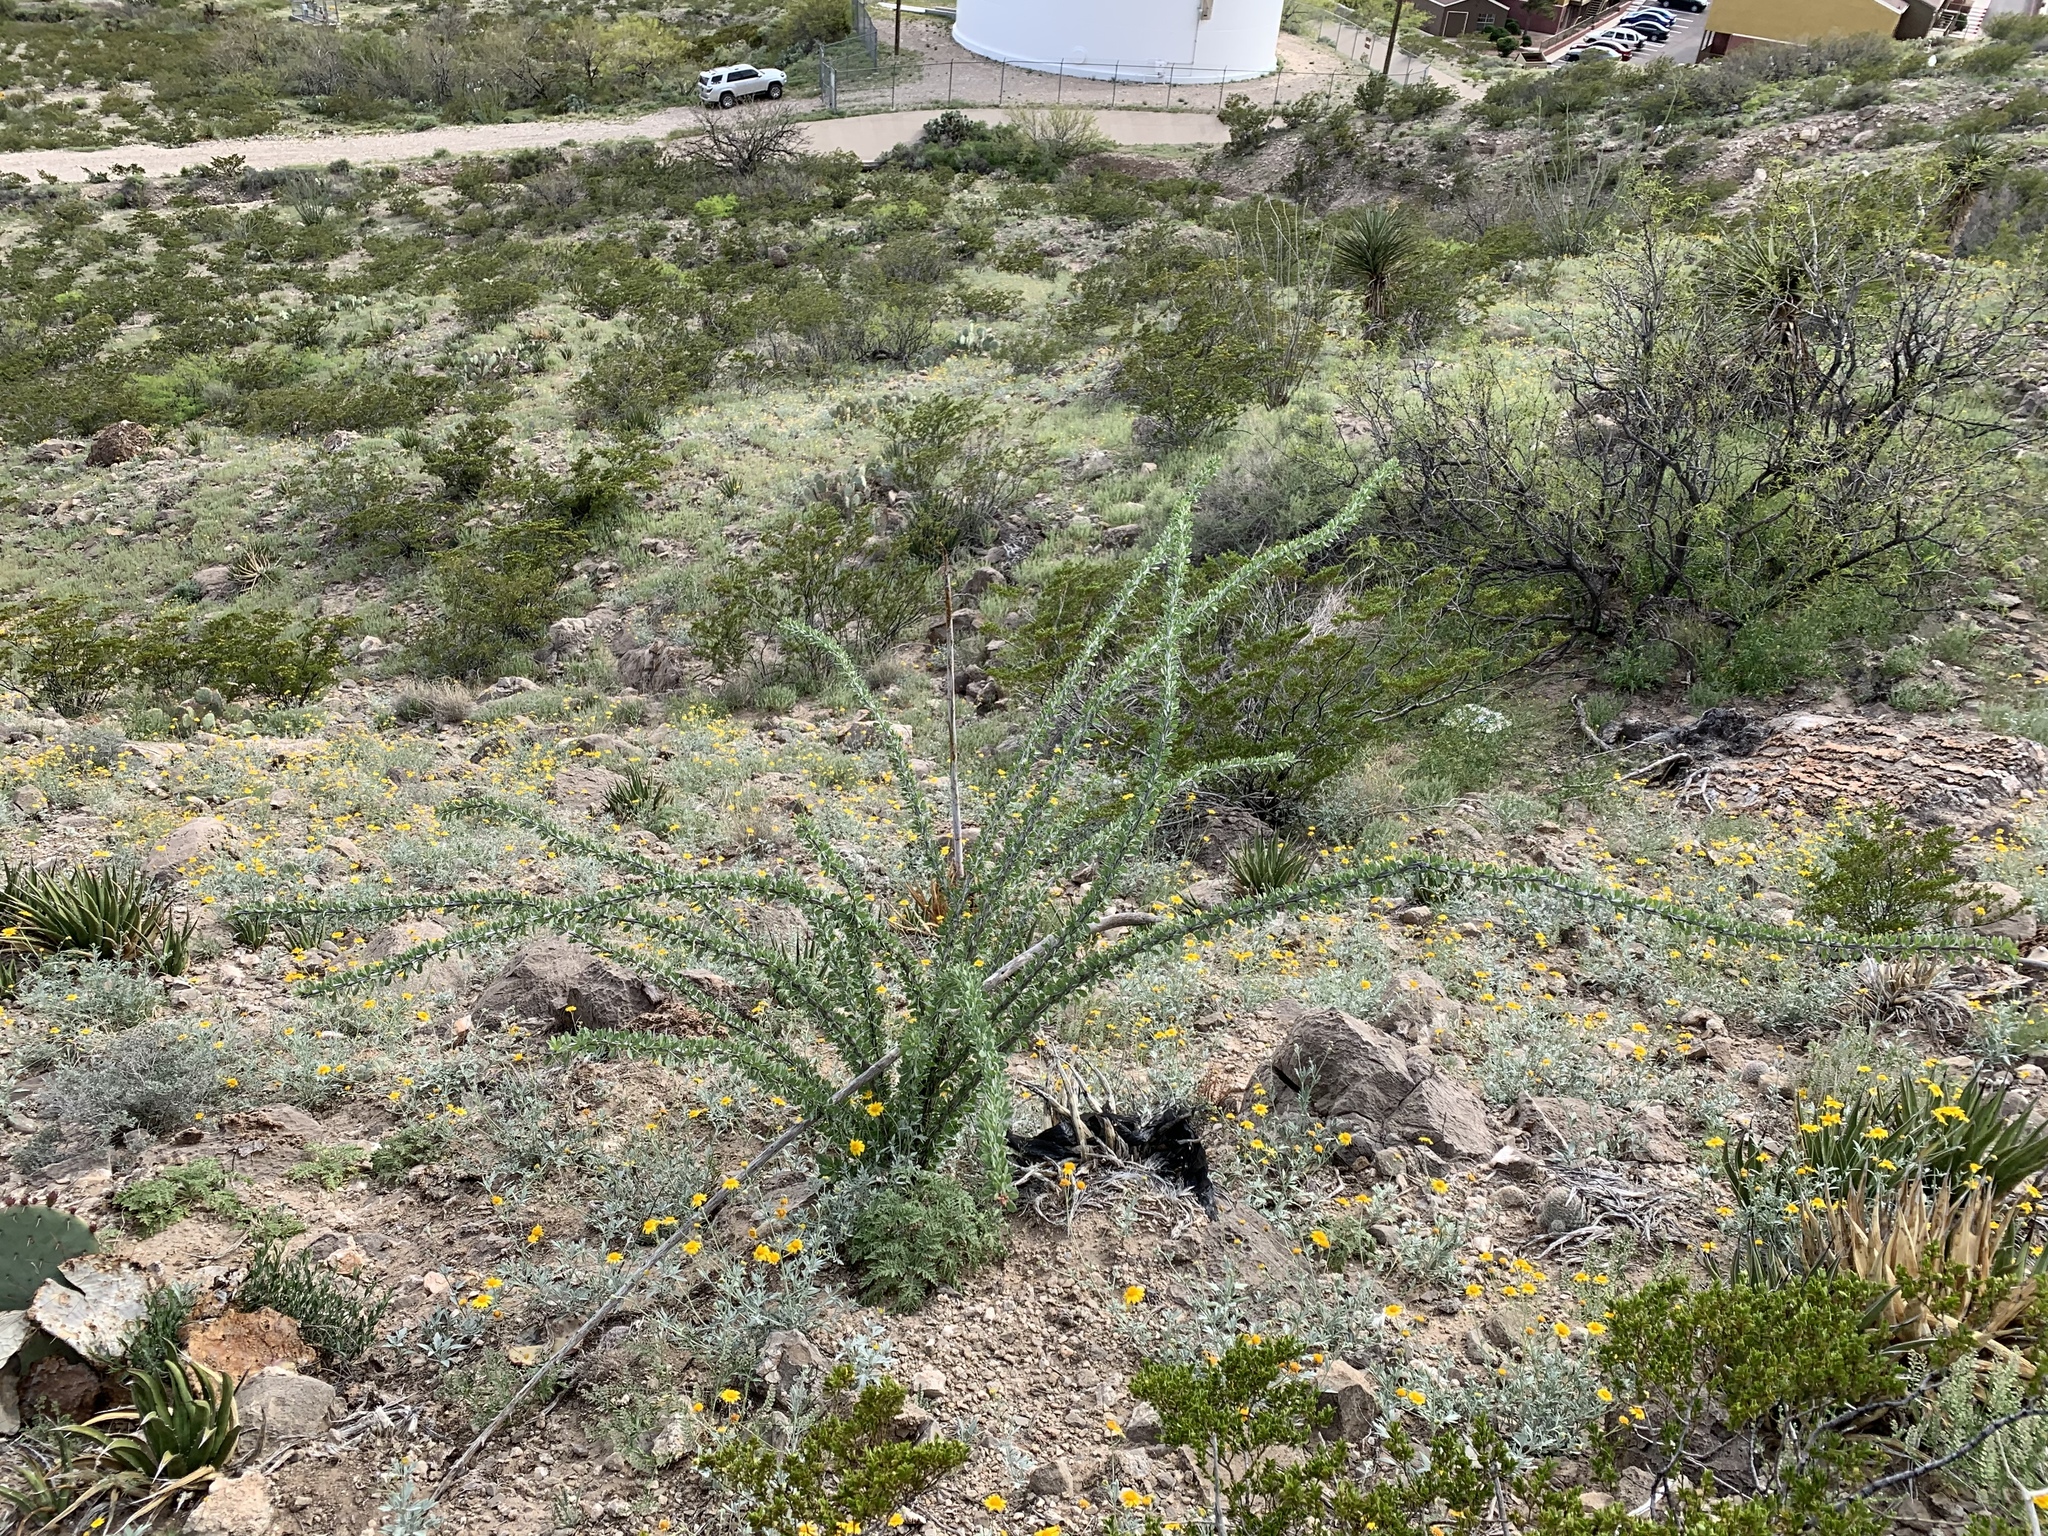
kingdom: Plantae
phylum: Tracheophyta
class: Magnoliopsida
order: Ericales
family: Fouquieriaceae
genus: Fouquieria
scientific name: Fouquieria splendens
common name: Vine-cactus
